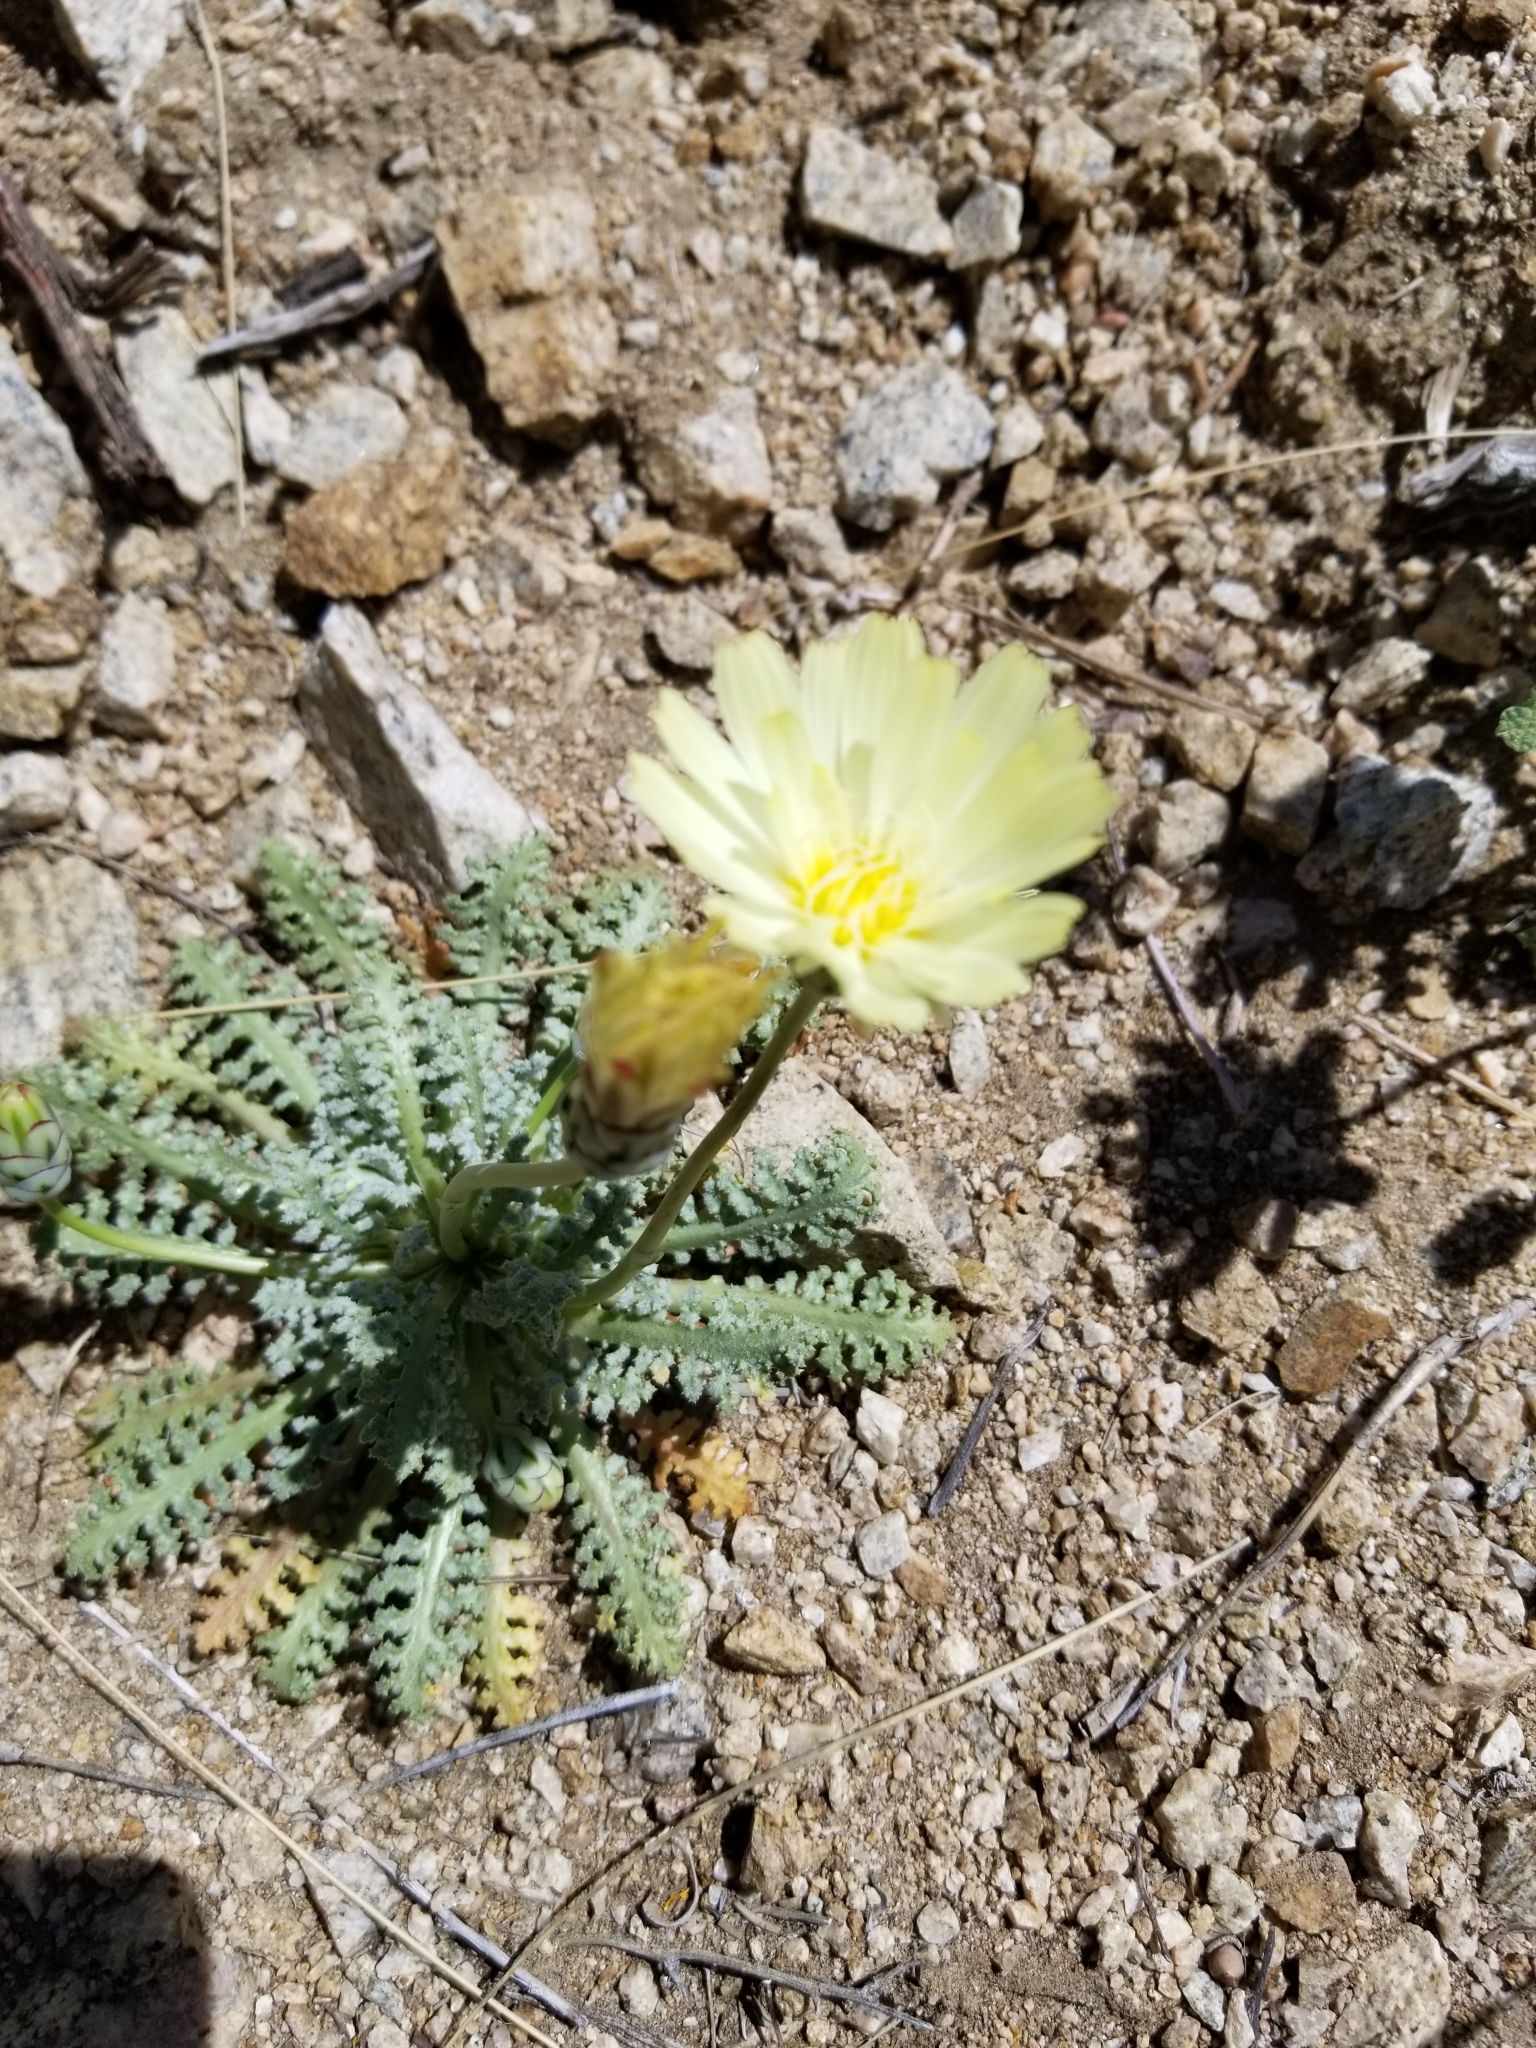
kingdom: Plantae
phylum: Tracheophyta
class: Magnoliopsida
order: Asterales
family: Asteraceae
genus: Anisocoma
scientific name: Anisocoma acaulis
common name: Scalebud
